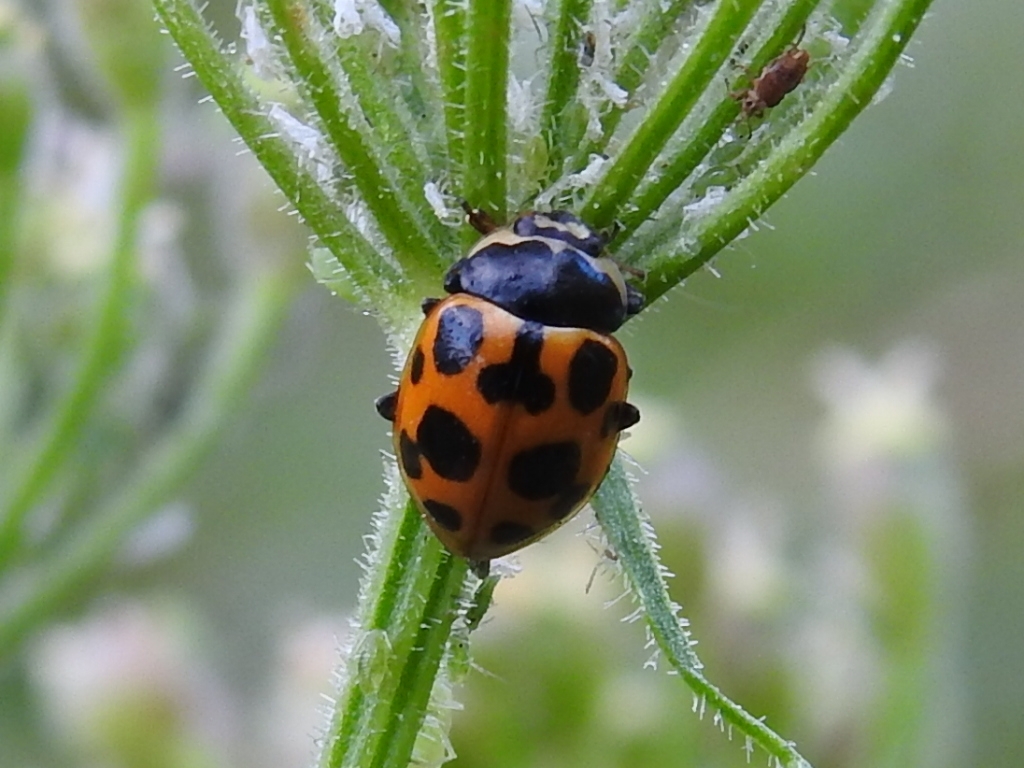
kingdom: Animalia
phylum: Arthropoda
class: Insecta
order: Coleoptera
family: Coccinellidae
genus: Ceratomegilla
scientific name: Ceratomegilla notata
